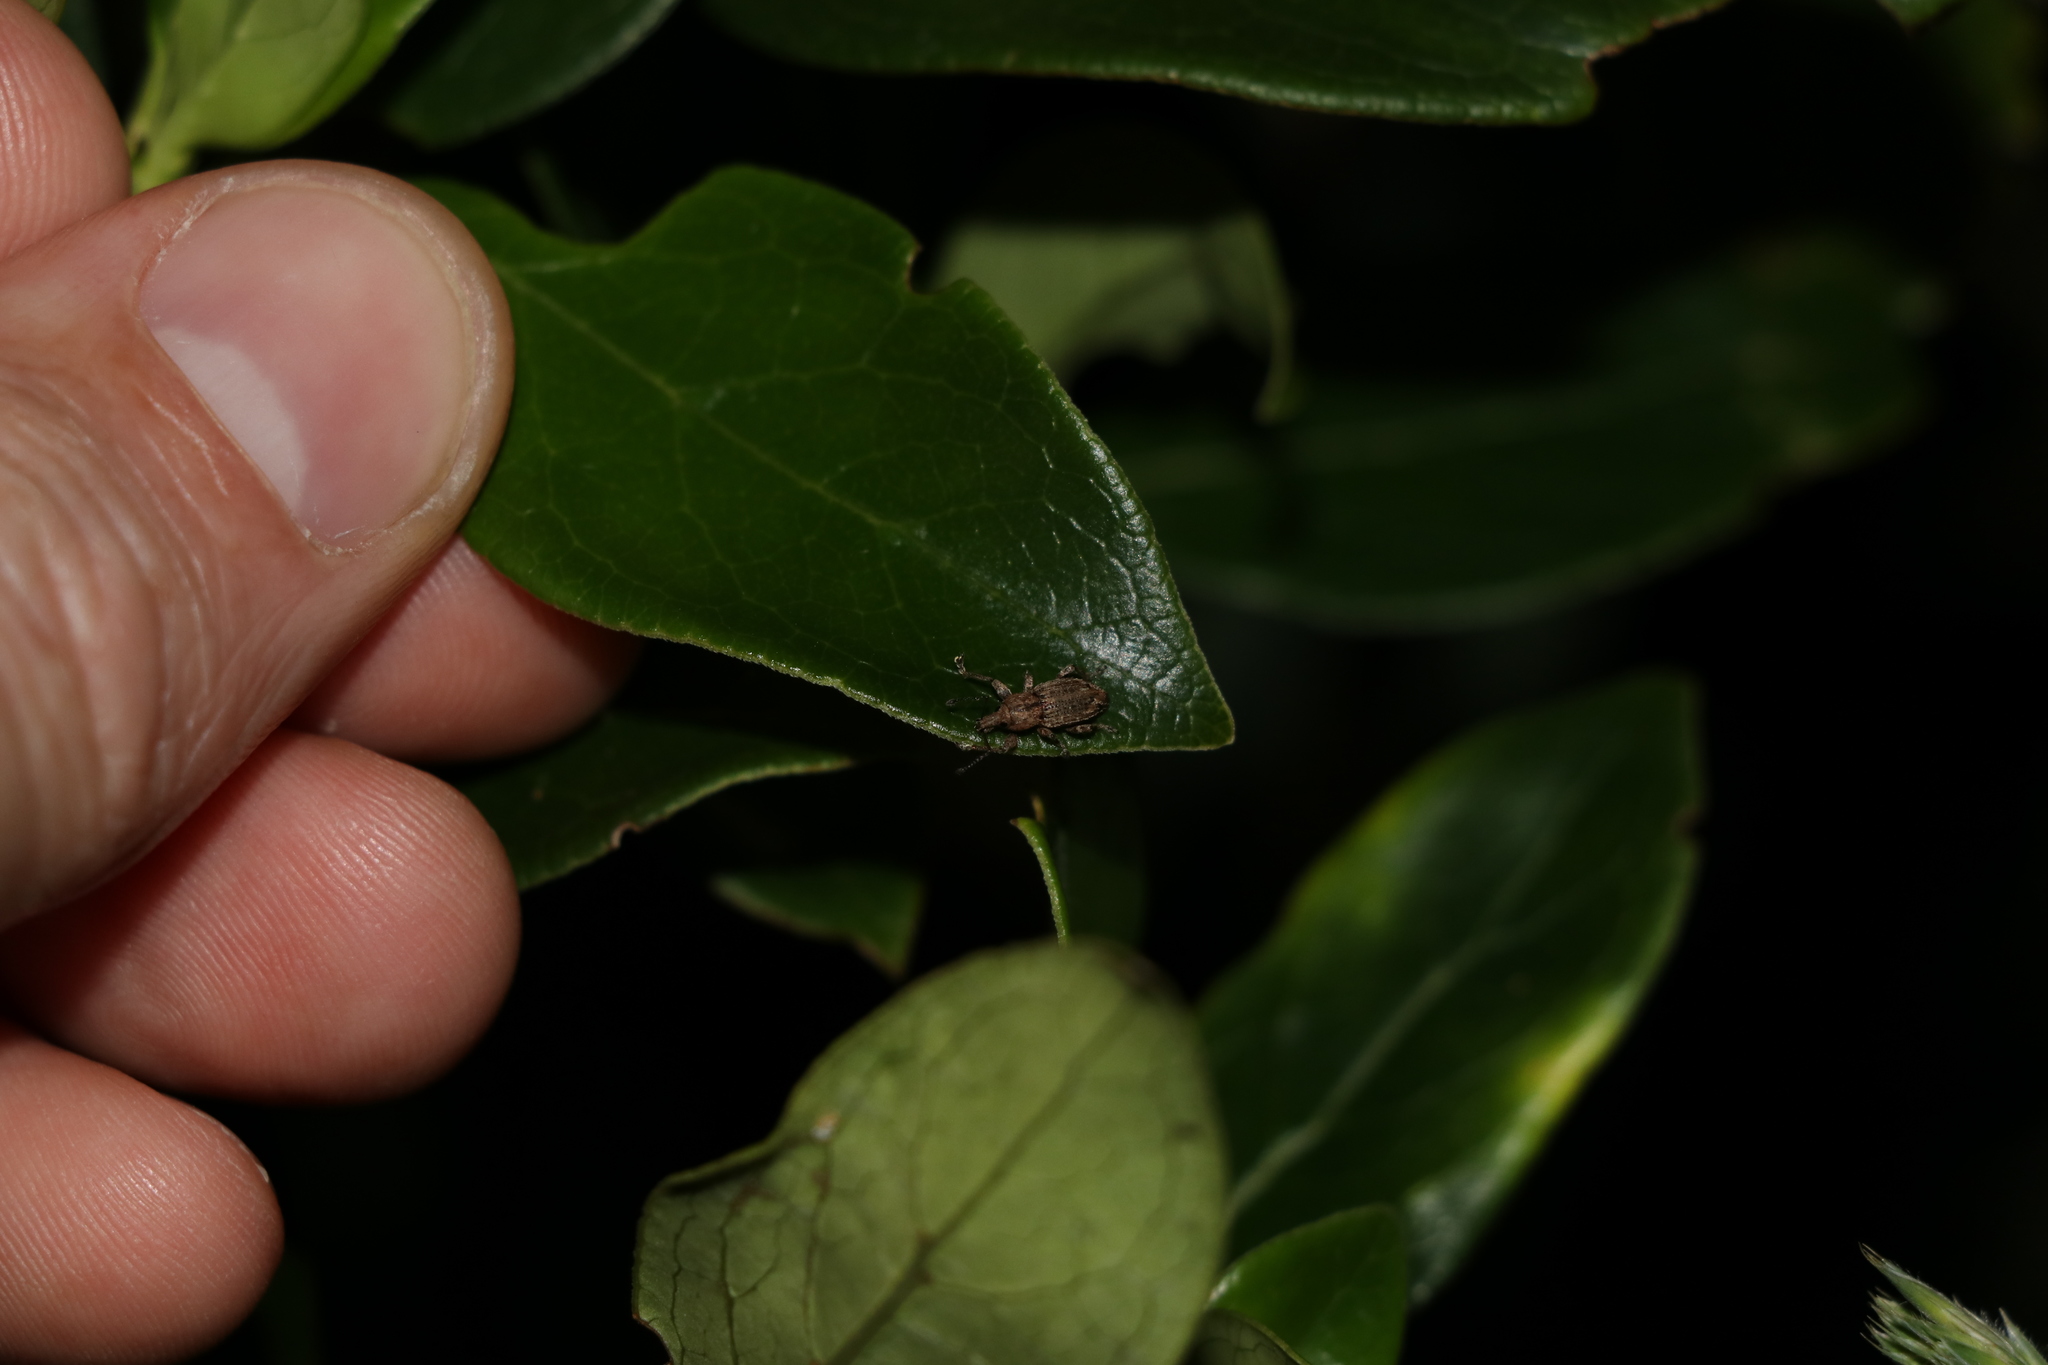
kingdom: Animalia
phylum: Arthropoda
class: Insecta
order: Coleoptera
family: Curculionidae
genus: Chalepistes
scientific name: Chalepistes compressus
